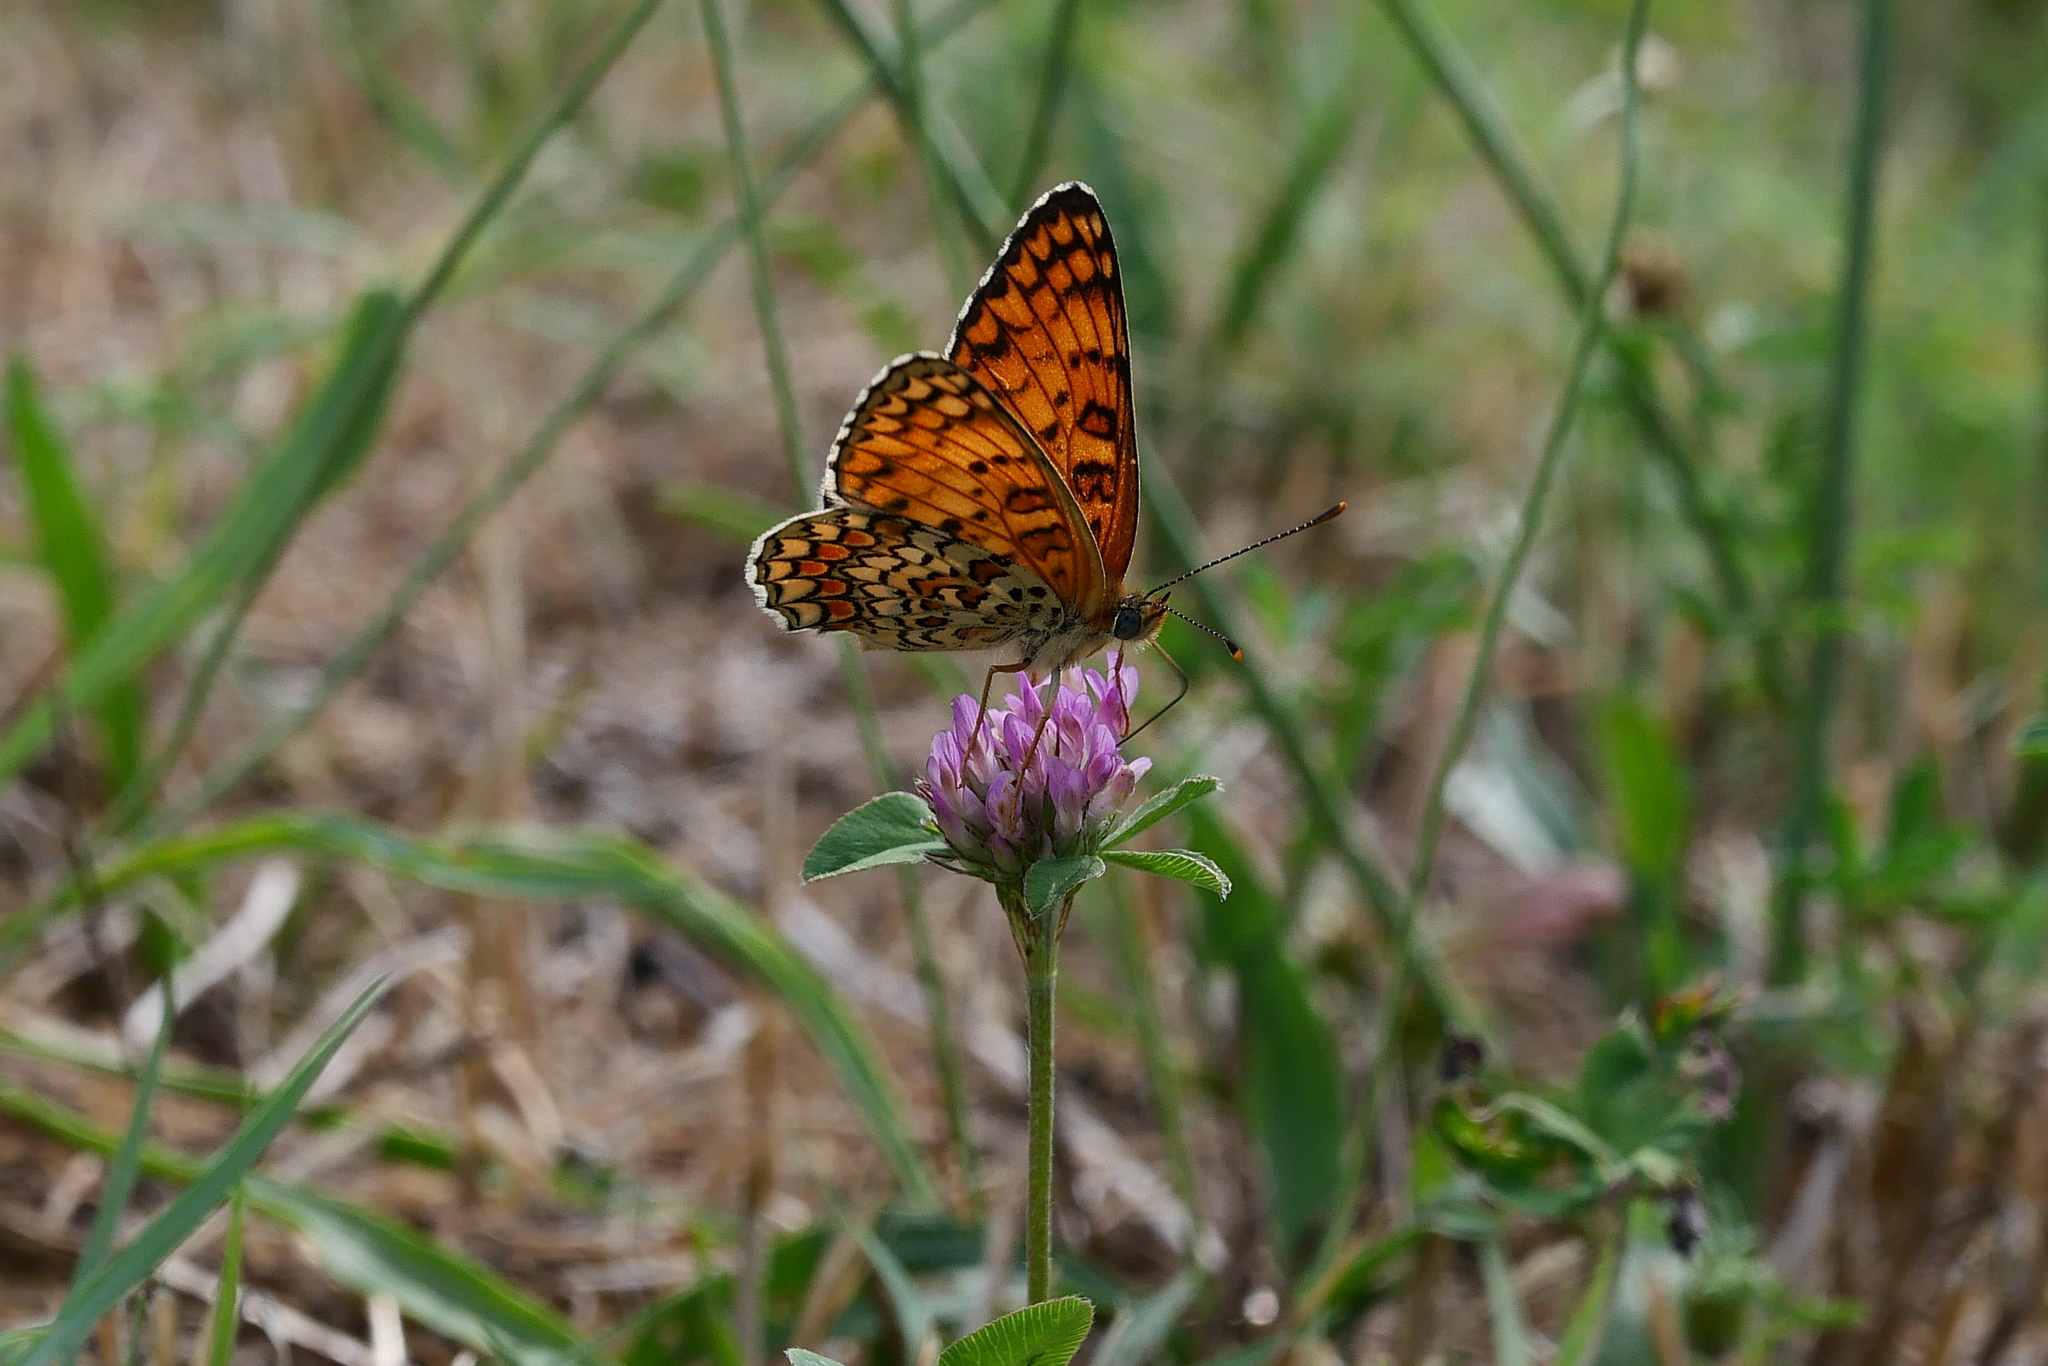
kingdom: Animalia
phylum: Arthropoda
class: Insecta
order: Lepidoptera
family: Nymphalidae
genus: Melitaea
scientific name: Melitaea phoebe
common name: Knapweed fritillary
